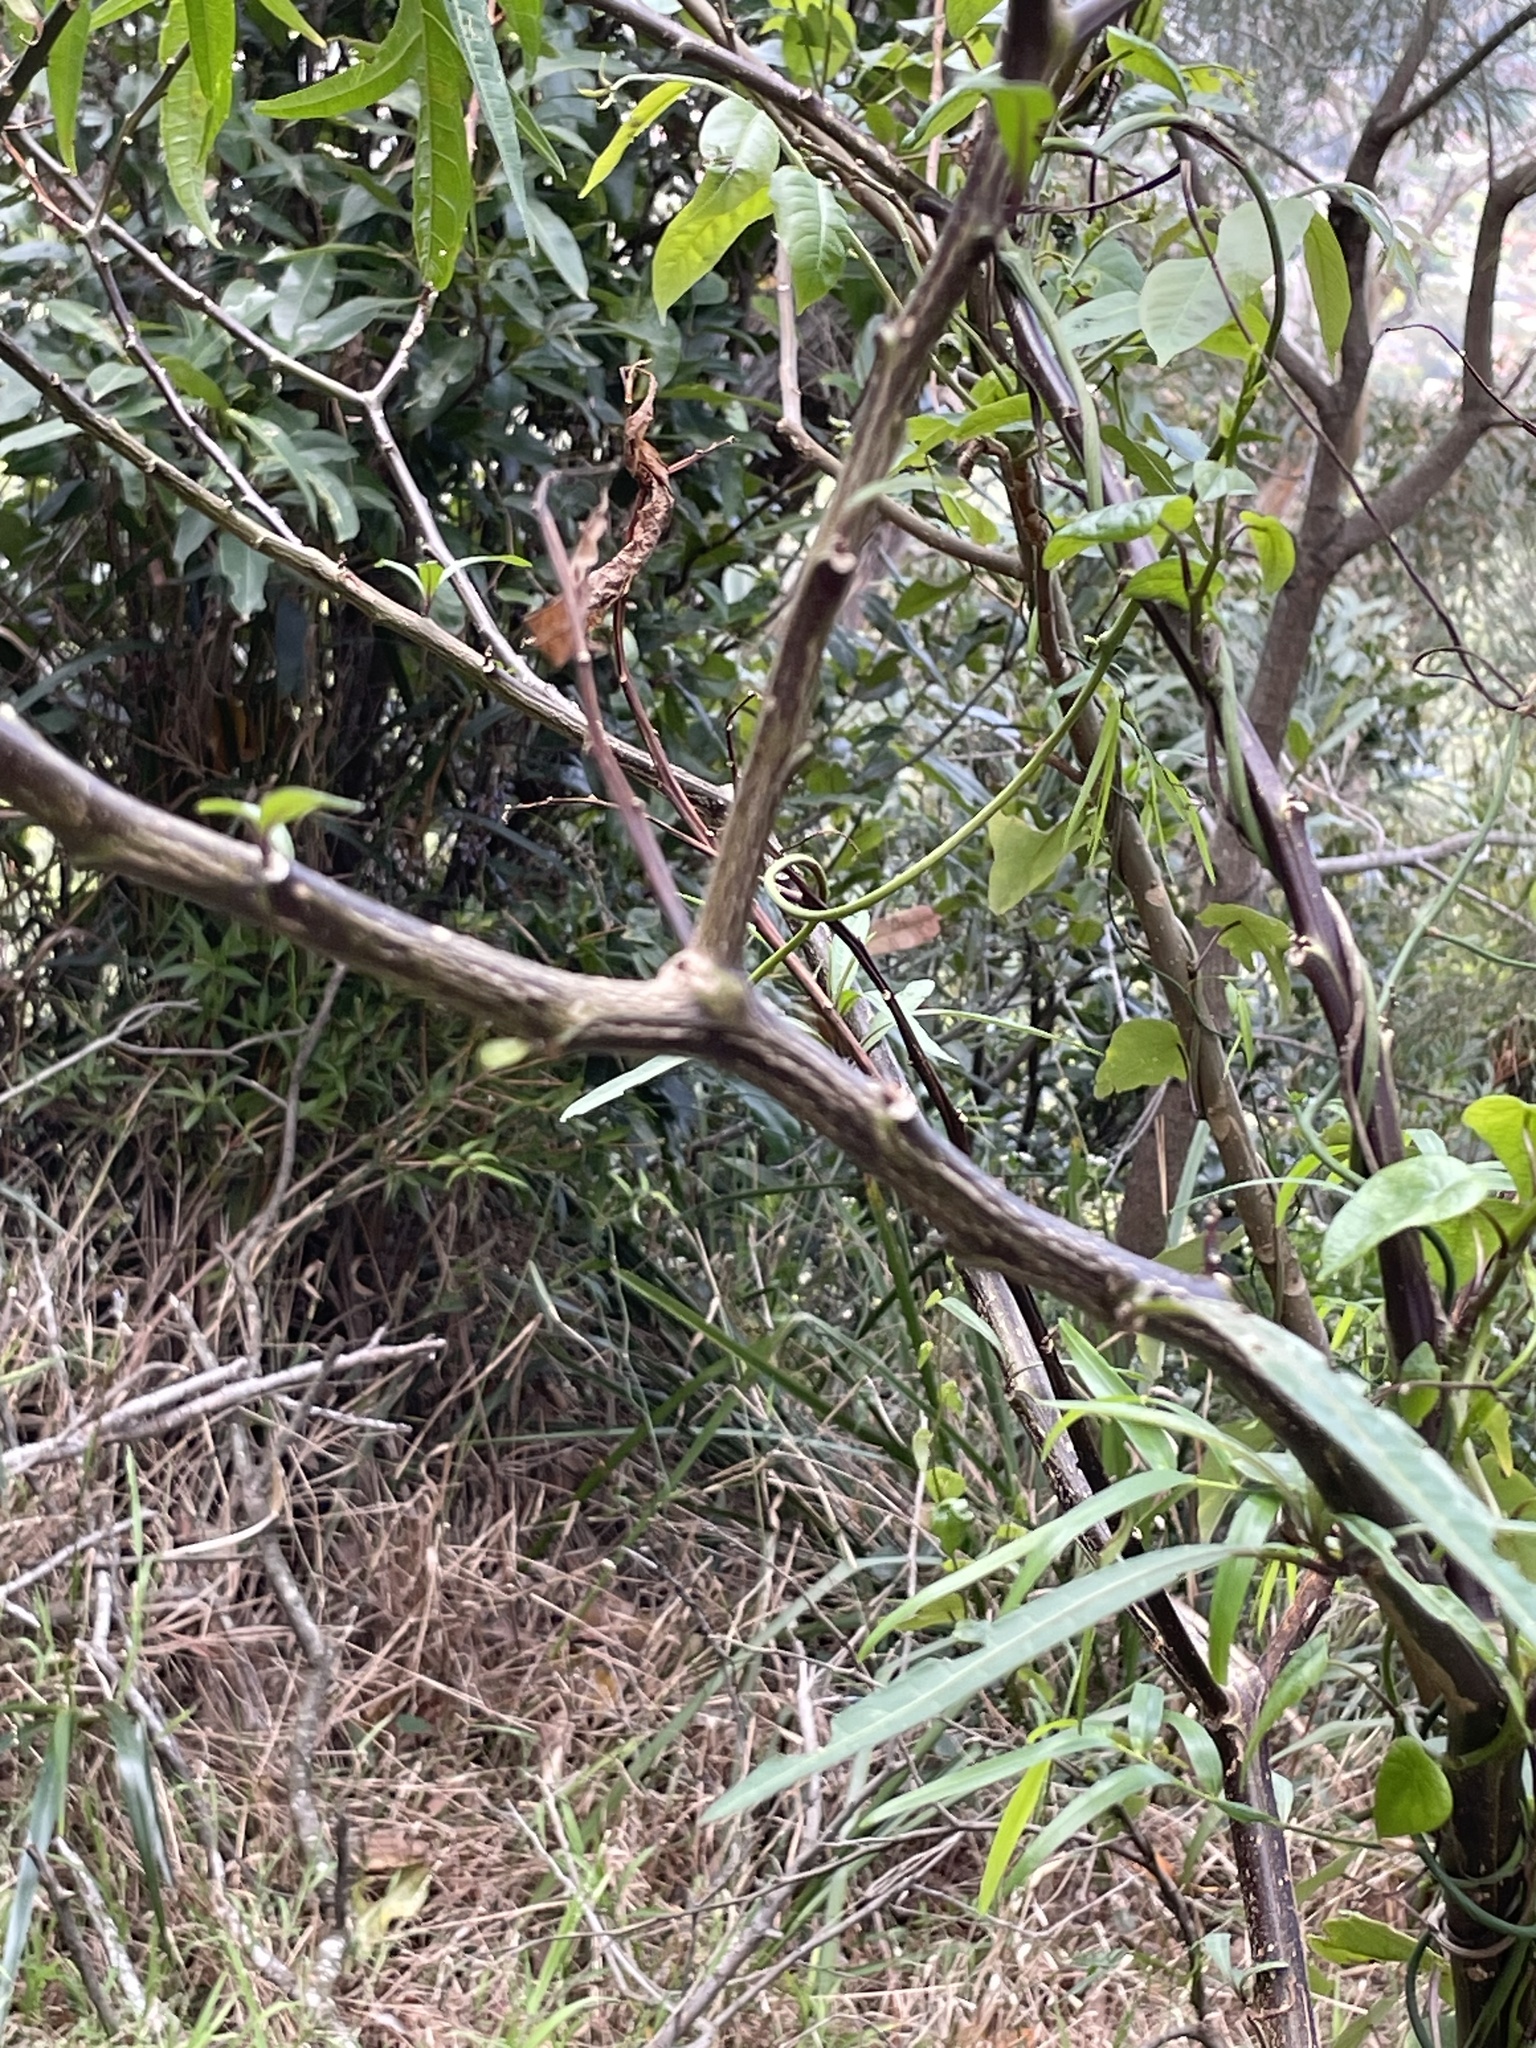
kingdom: Plantae
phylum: Tracheophyta
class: Magnoliopsida
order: Solanales
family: Solanaceae
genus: Solanum
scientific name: Solanum aviculare
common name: New zealand nightshade
